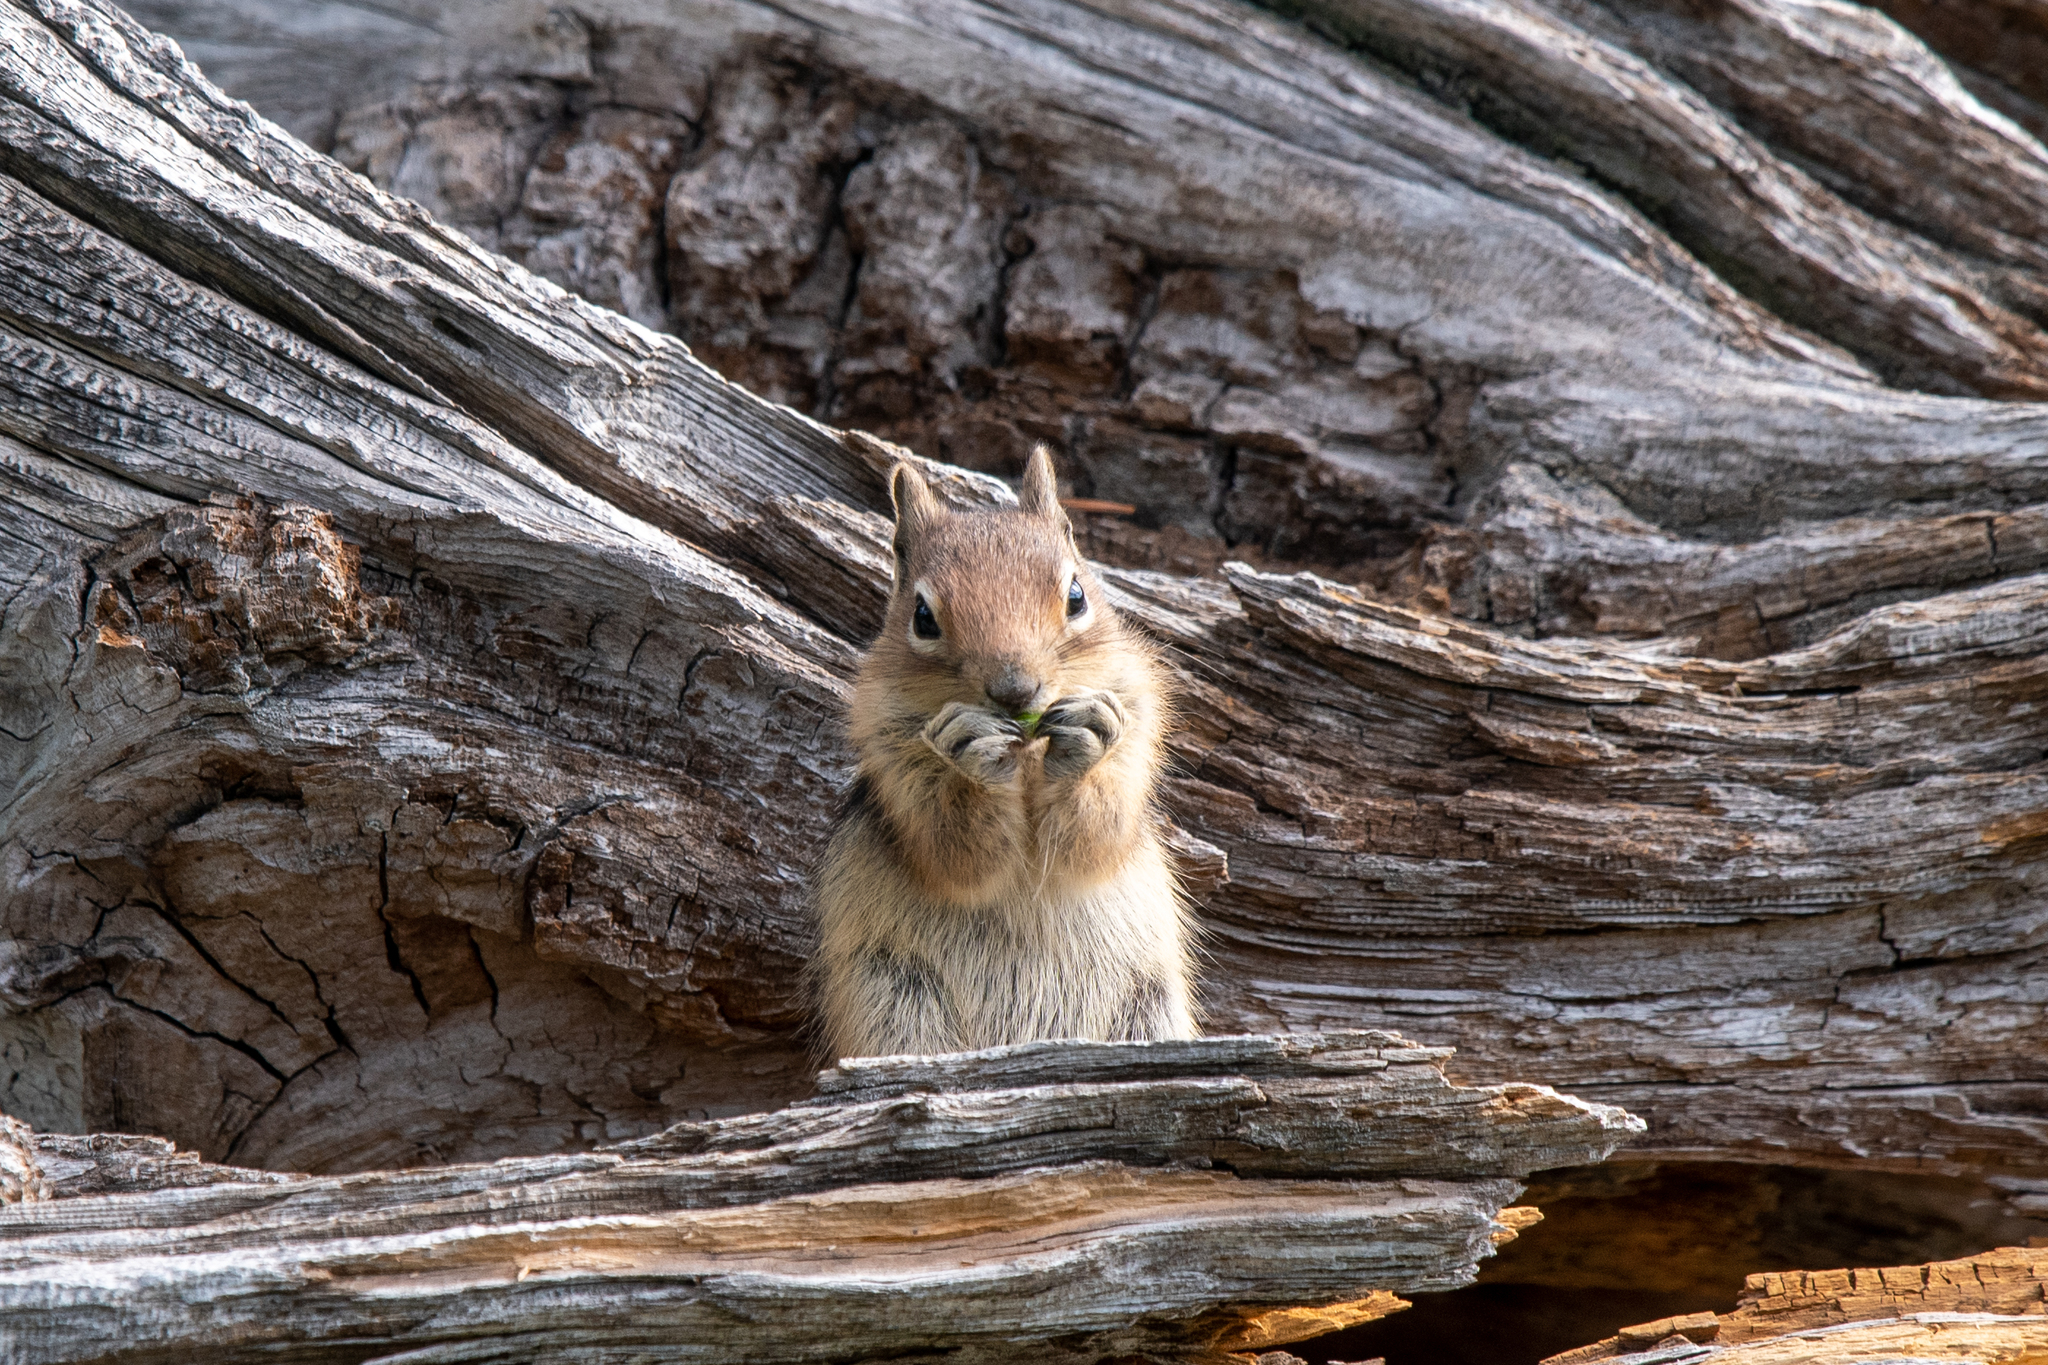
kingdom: Animalia
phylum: Chordata
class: Mammalia
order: Rodentia
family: Sciuridae
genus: Callospermophilus
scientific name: Callospermophilus saturatus
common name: Cascade golden-mantled ground squirrel
